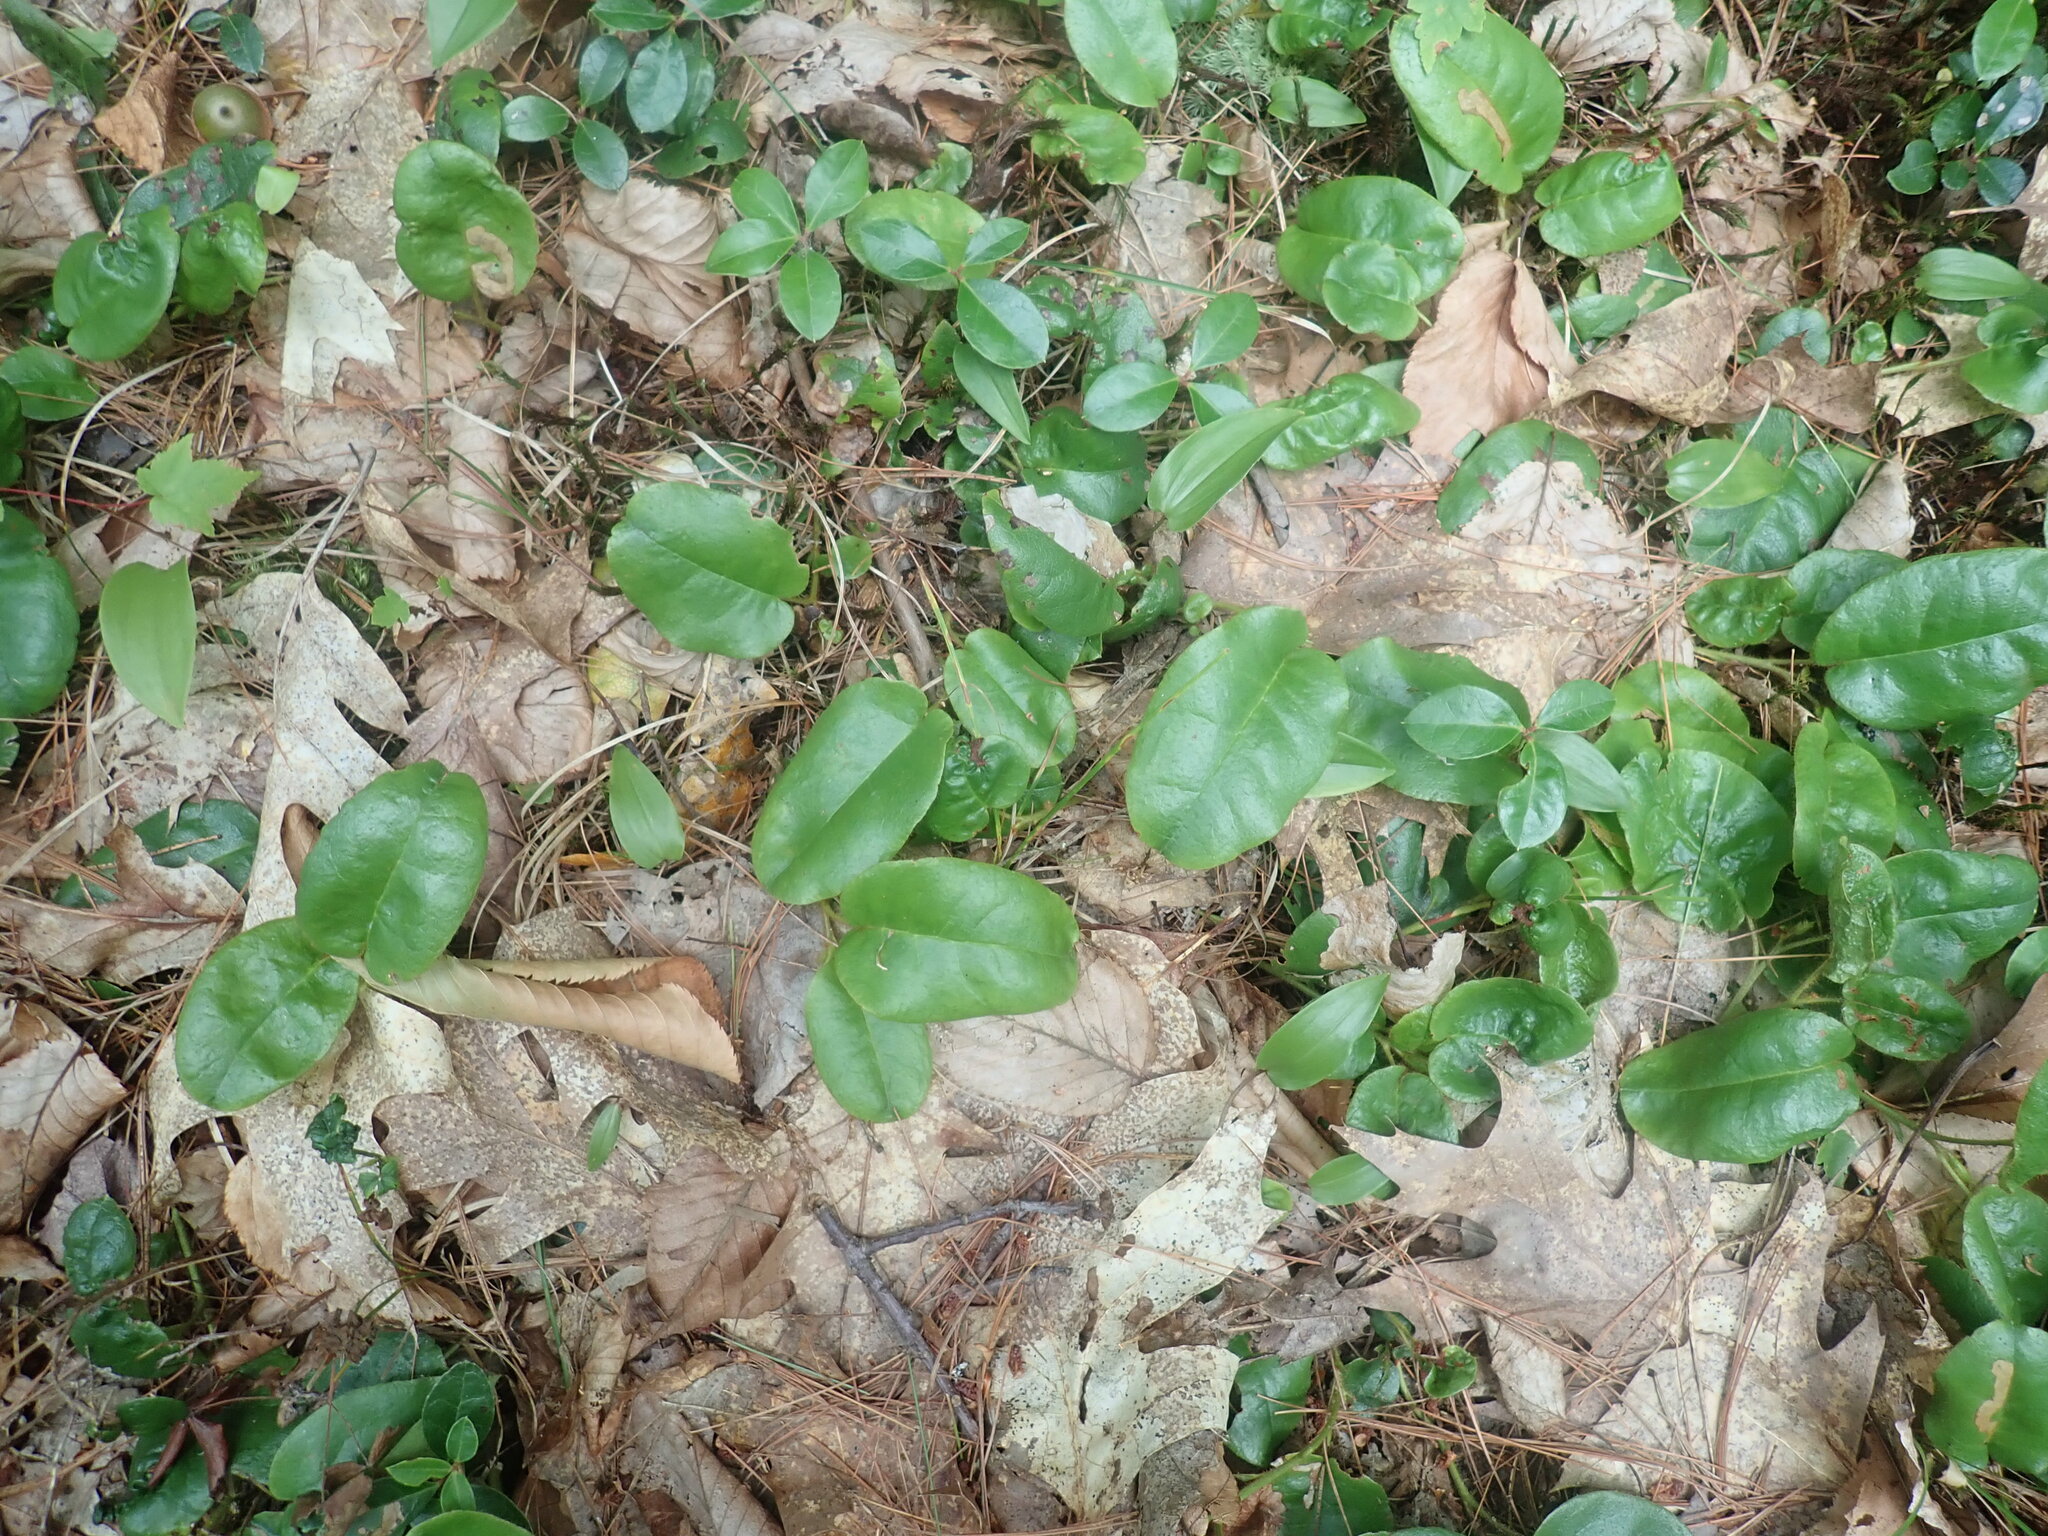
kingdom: Plantae
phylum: Tracheophyta
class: Magnoliopsida
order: Ericales
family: Ericaceae
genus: Epigaea
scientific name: Epigaea repens
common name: Gravelroot
